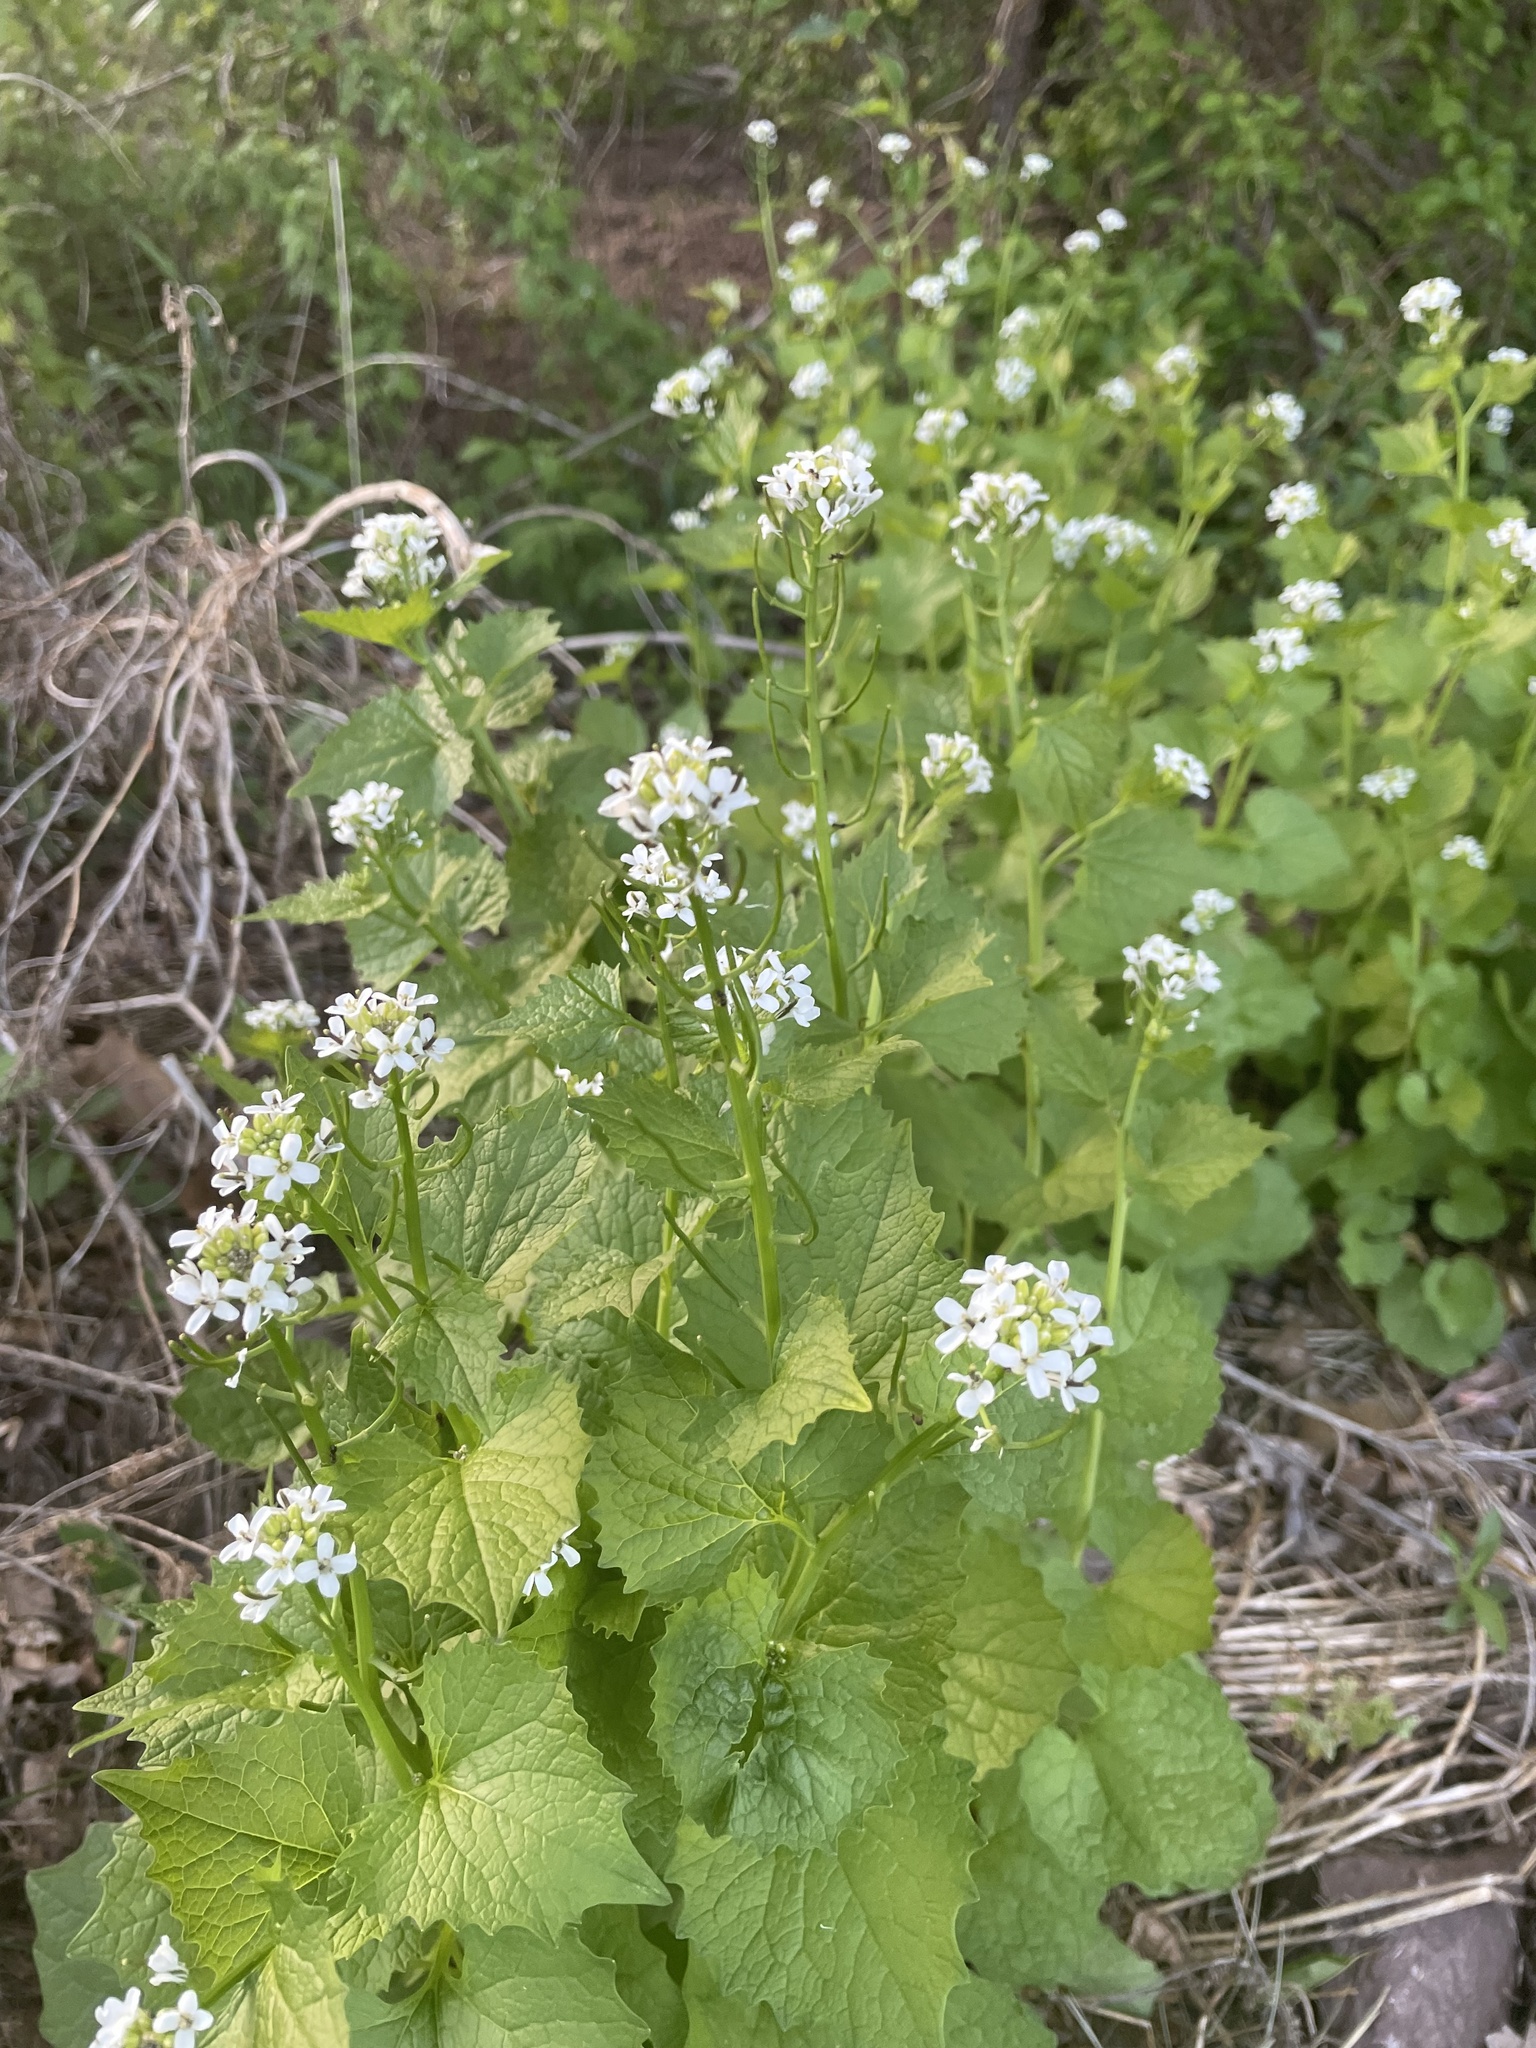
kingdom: Plantae
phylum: Tracheophyta
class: Magnoliopsida
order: Brassicales
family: Brassicaceae
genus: Alliaria
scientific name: Alliaria petiolata
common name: Garlic mustard
